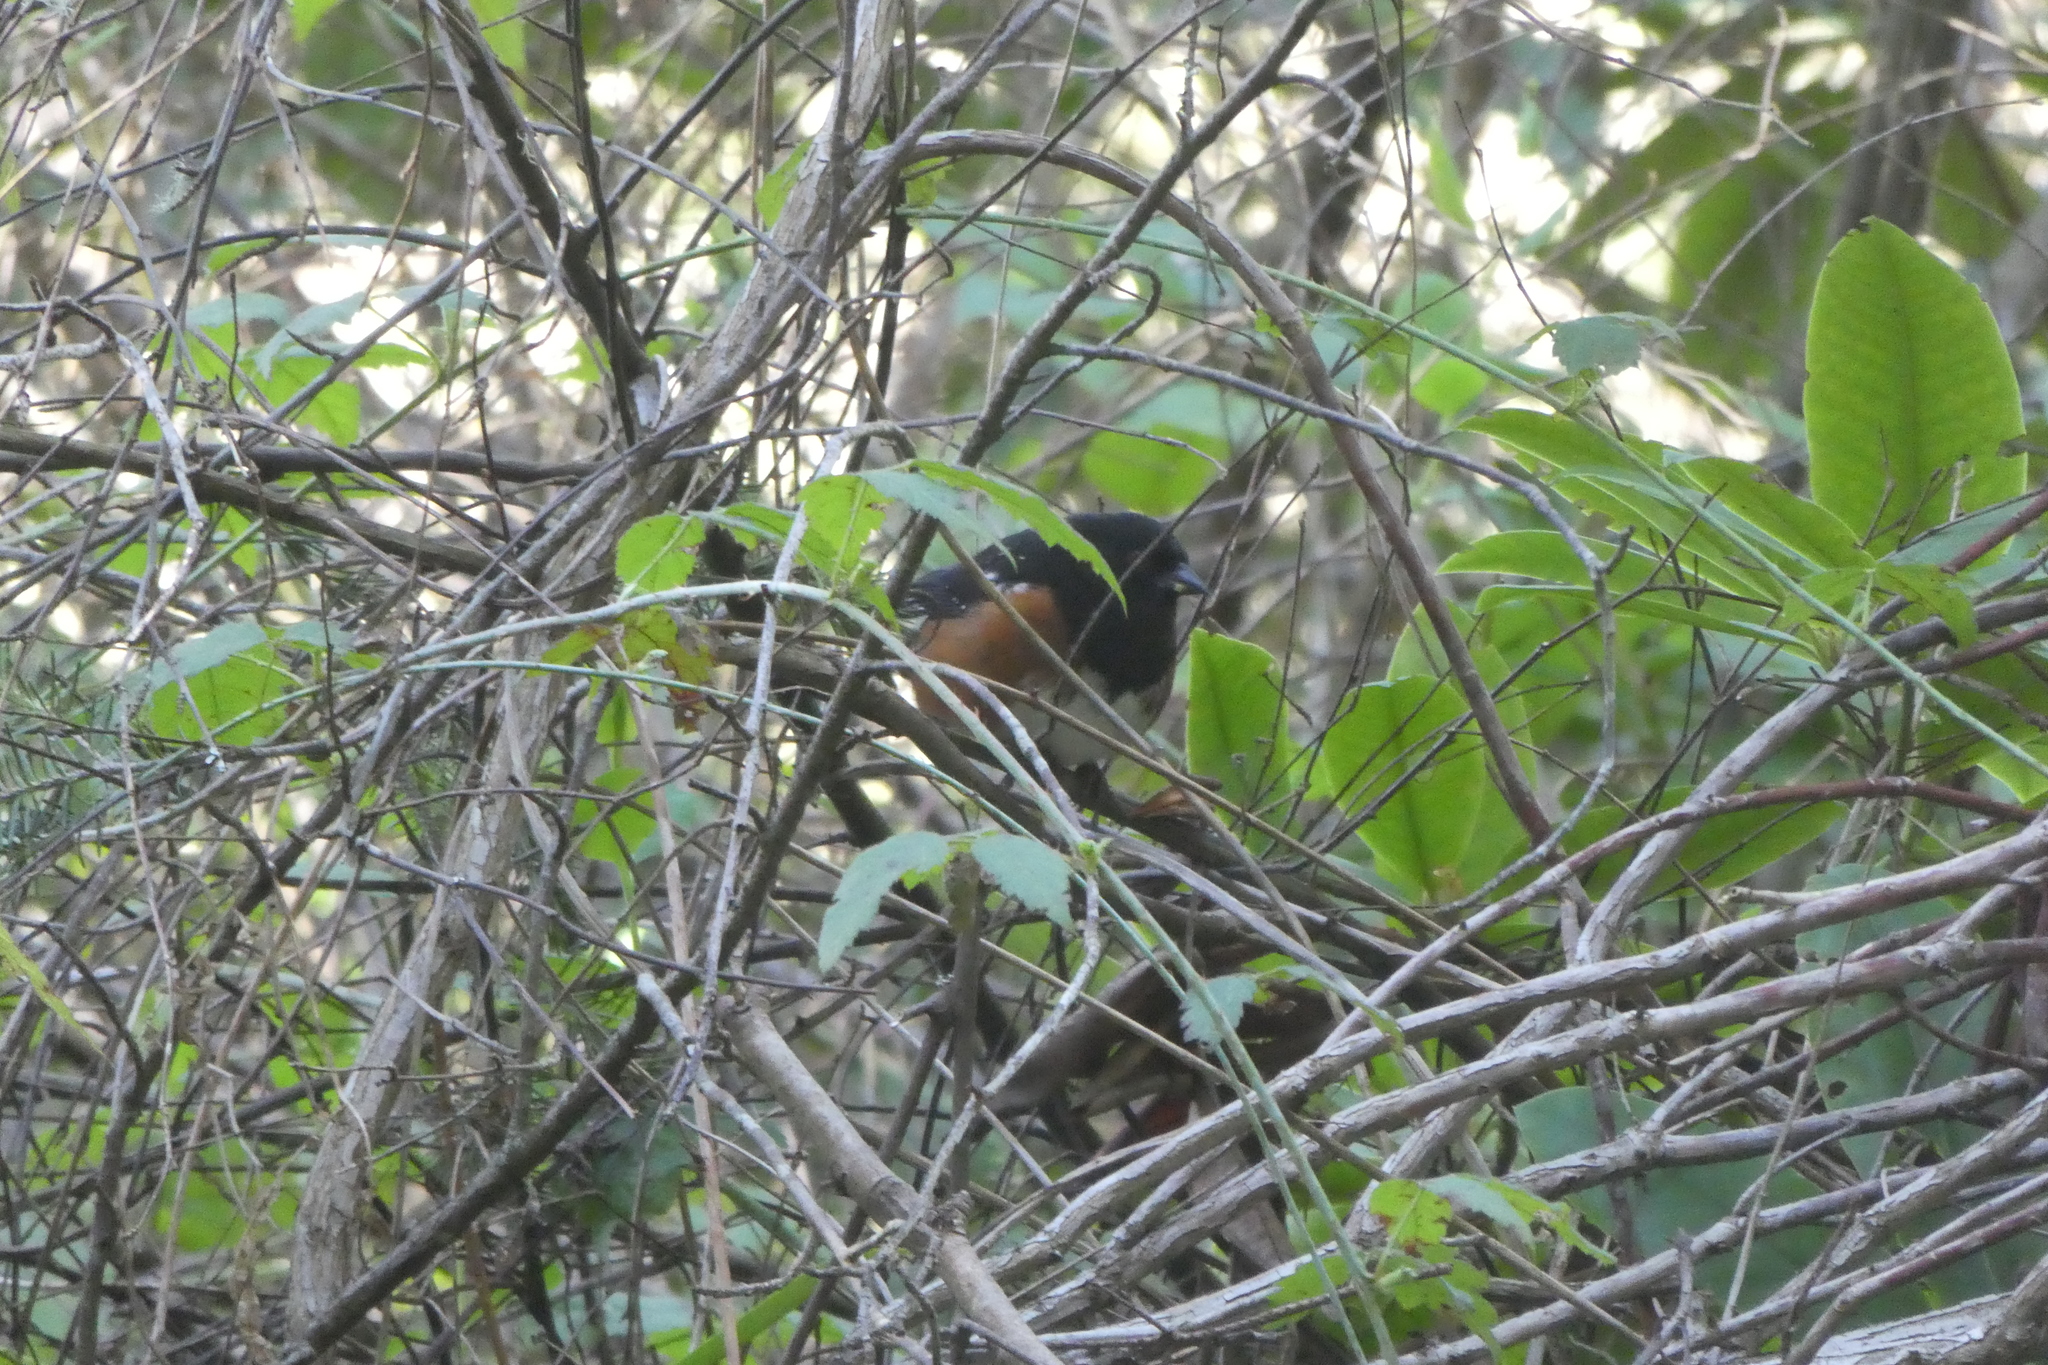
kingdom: Animalia
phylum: Chordata
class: Aves
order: Passeriformes
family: Passerellidae
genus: Pipilo
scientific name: Pipilo maculatus
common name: Spotted towhee
